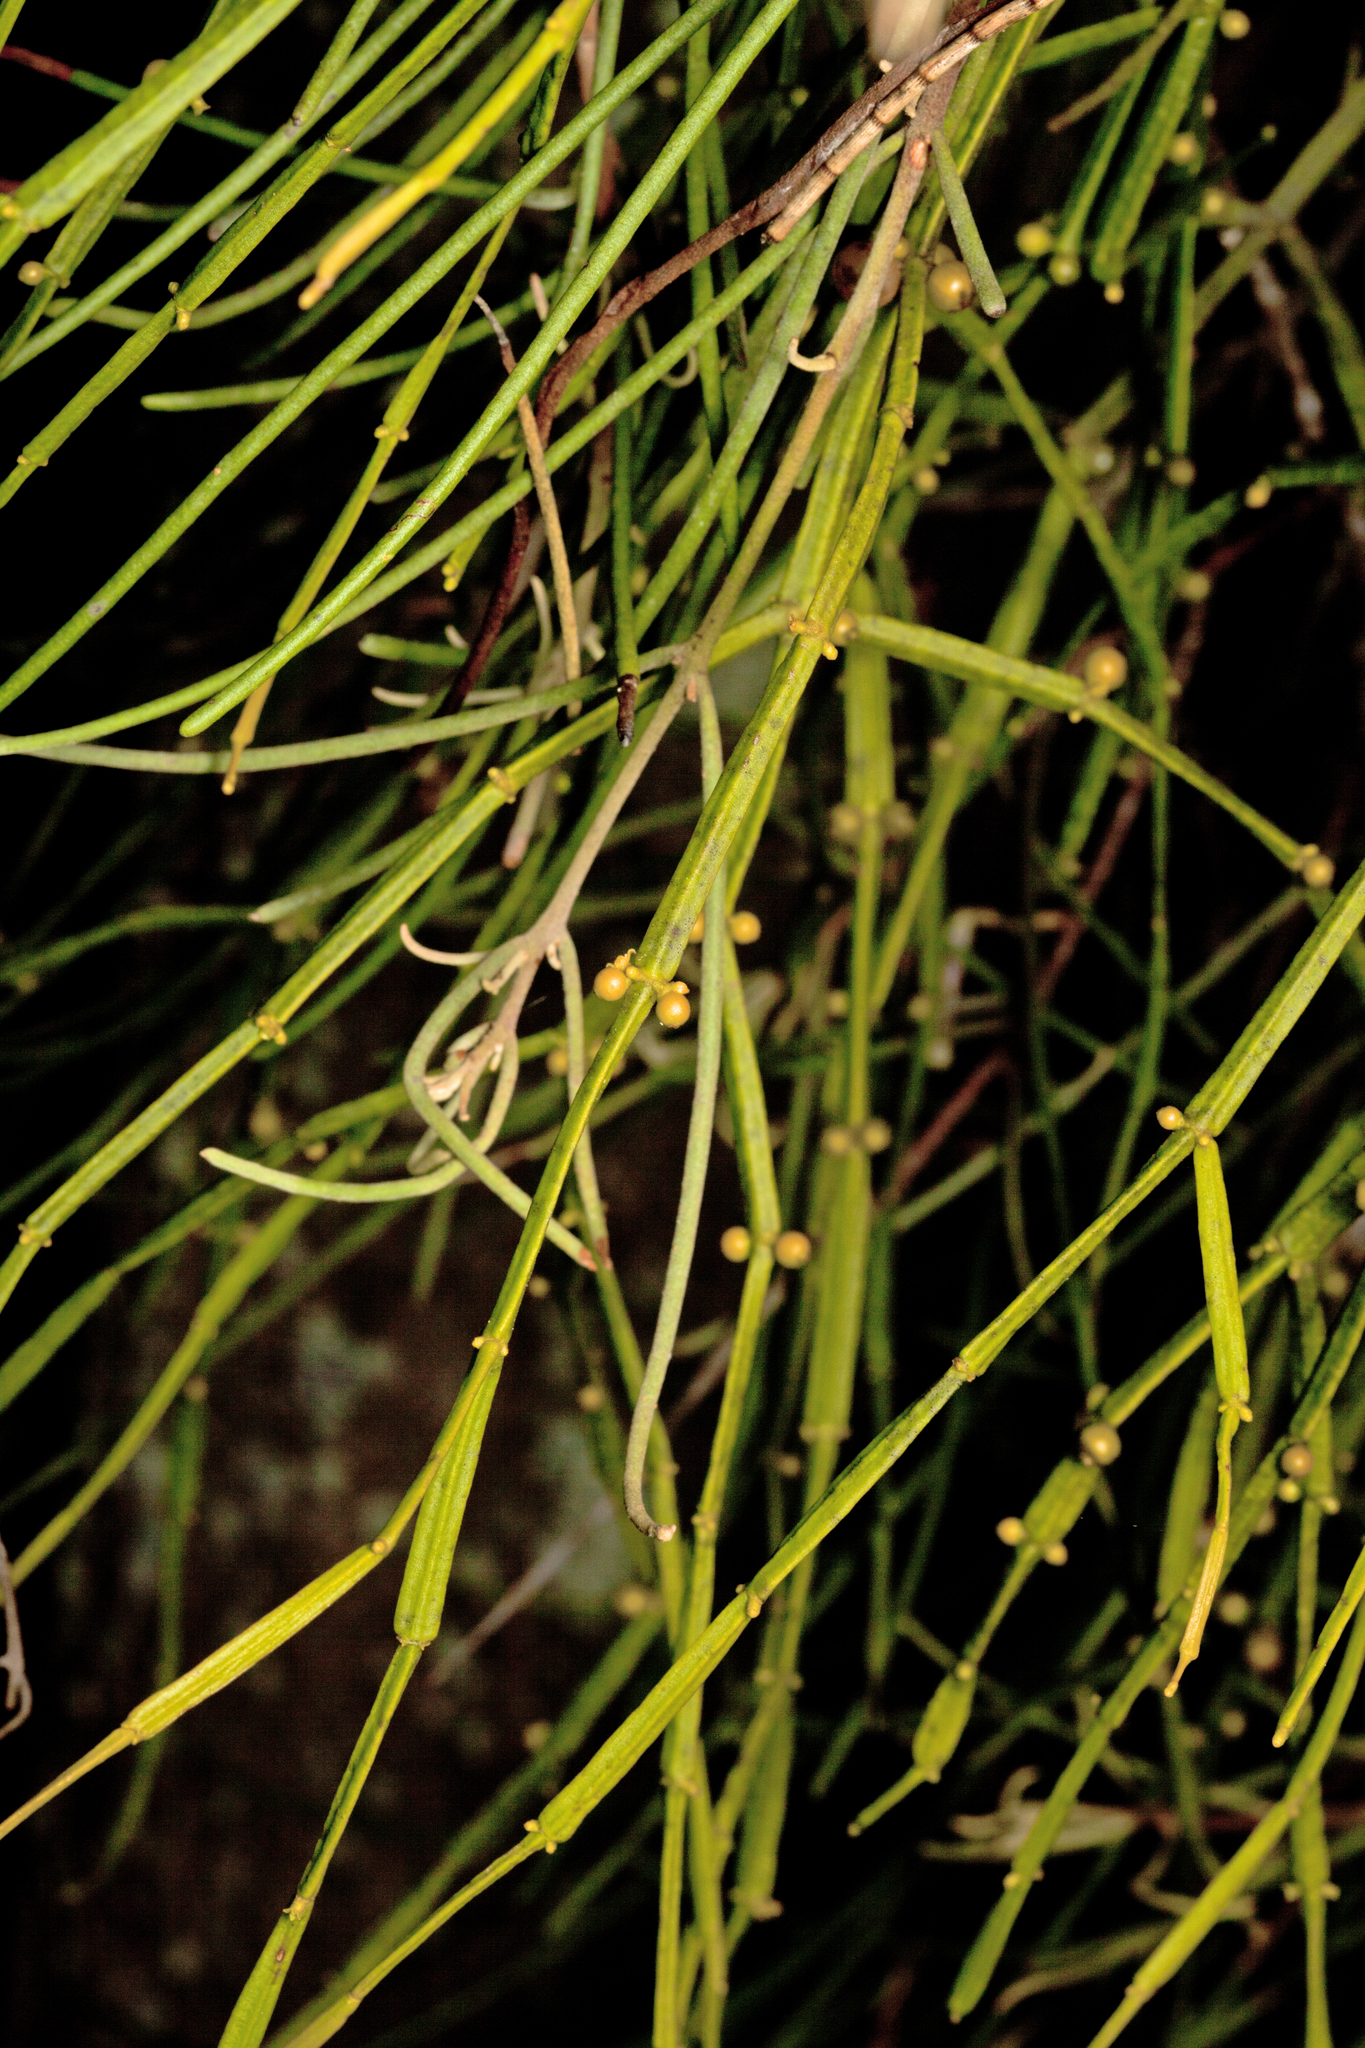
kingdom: Plantae
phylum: Tracheophyta
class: Magnoliopsida
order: Santalales
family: Viscaceae
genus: Viscum
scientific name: Viscum articulatum
